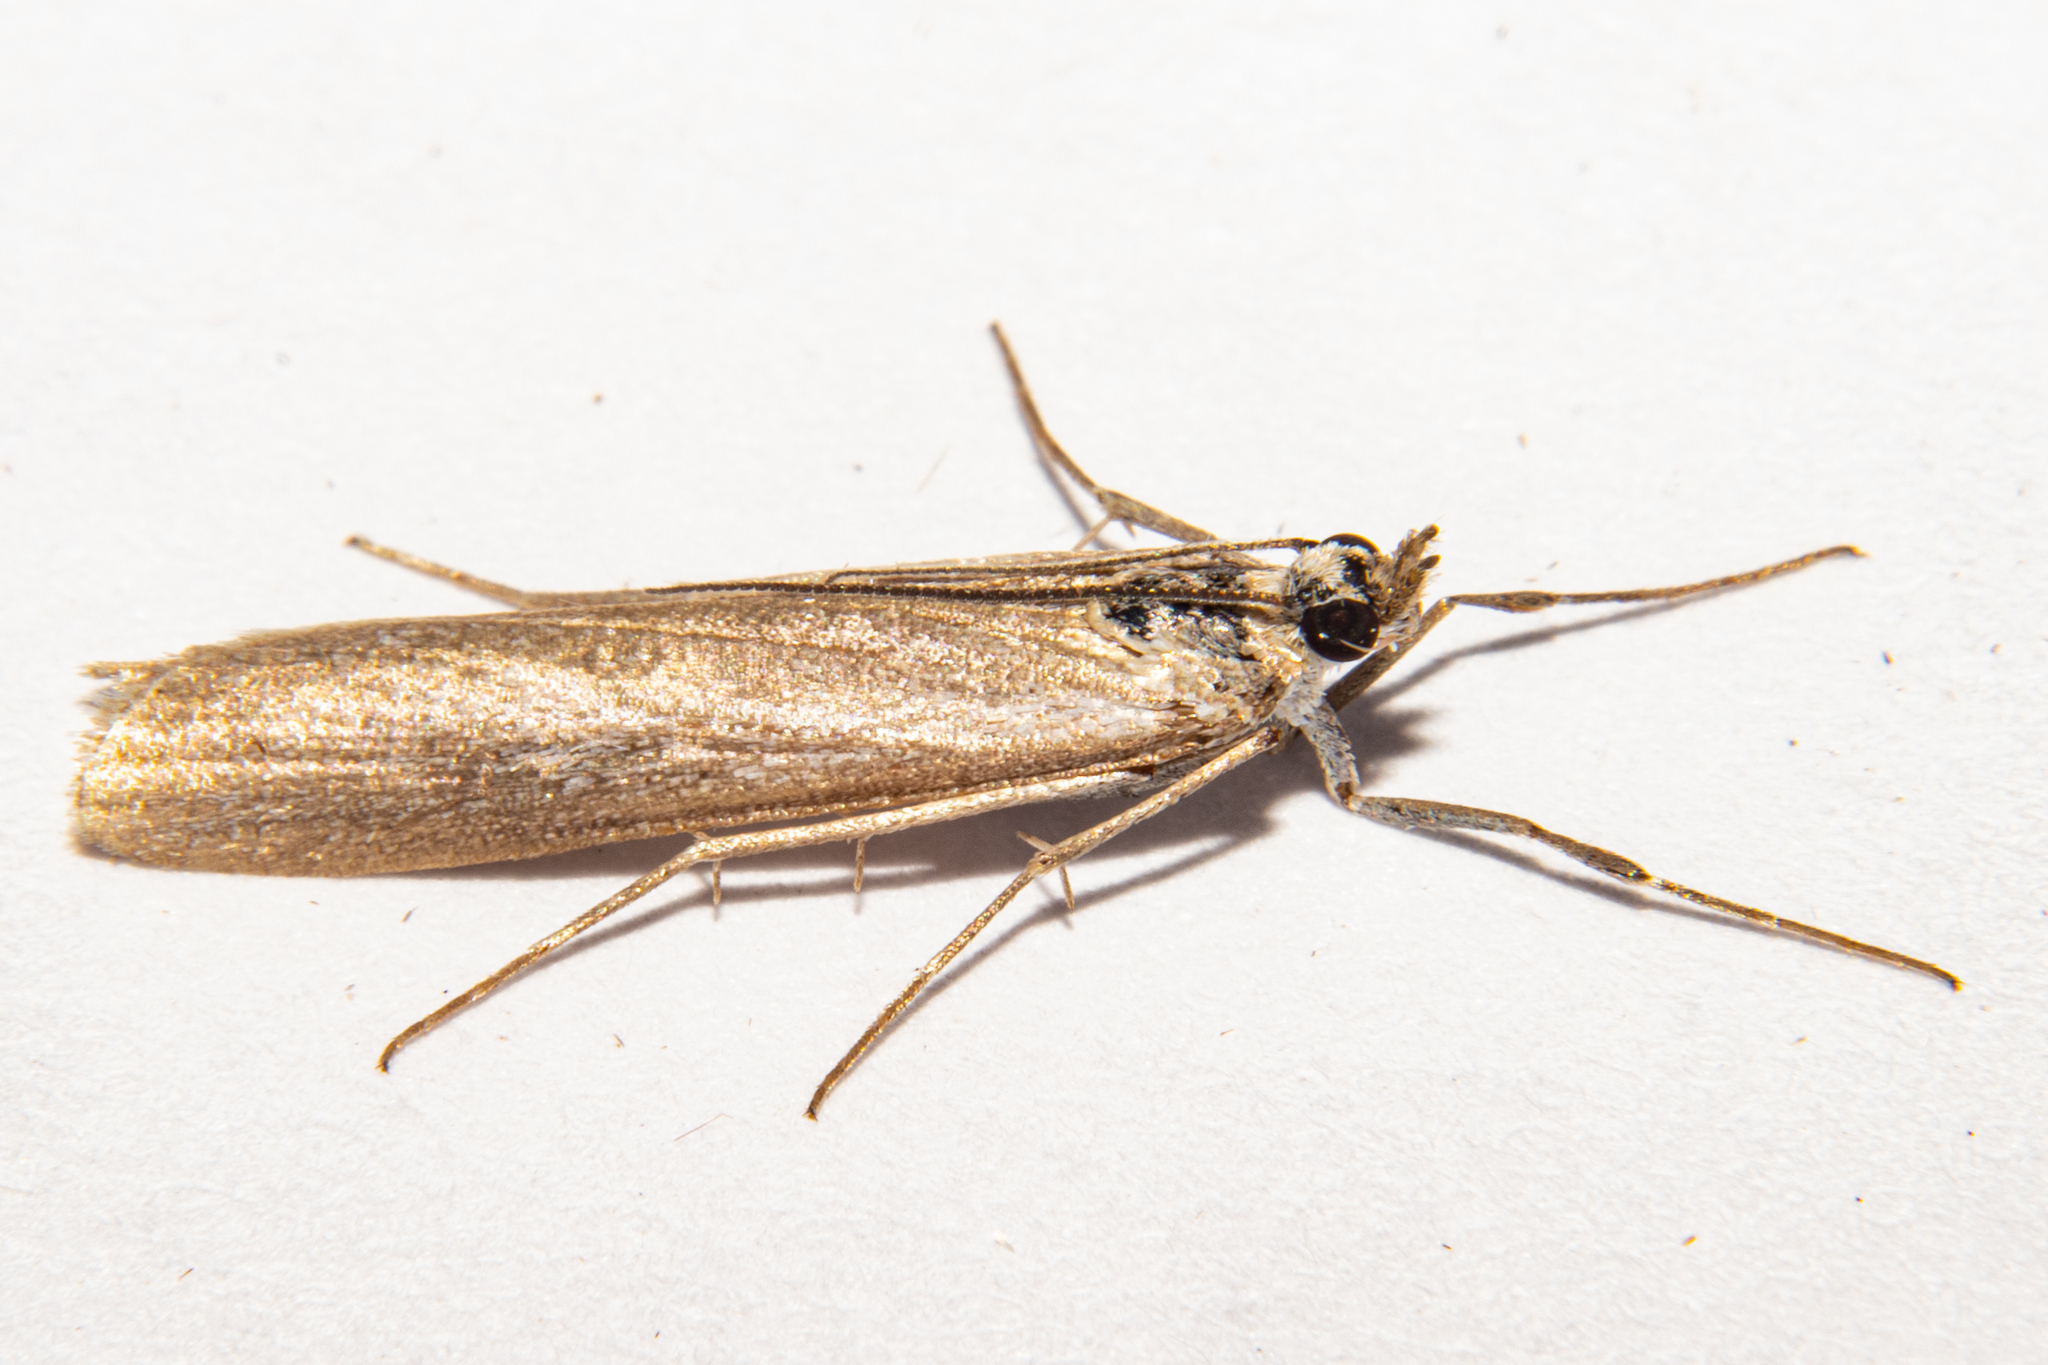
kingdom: Animalia
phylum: Arthropoda
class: Insecta
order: Lepidoptera
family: Crambidae
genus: Eudonia
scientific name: Eudonia leptalea
